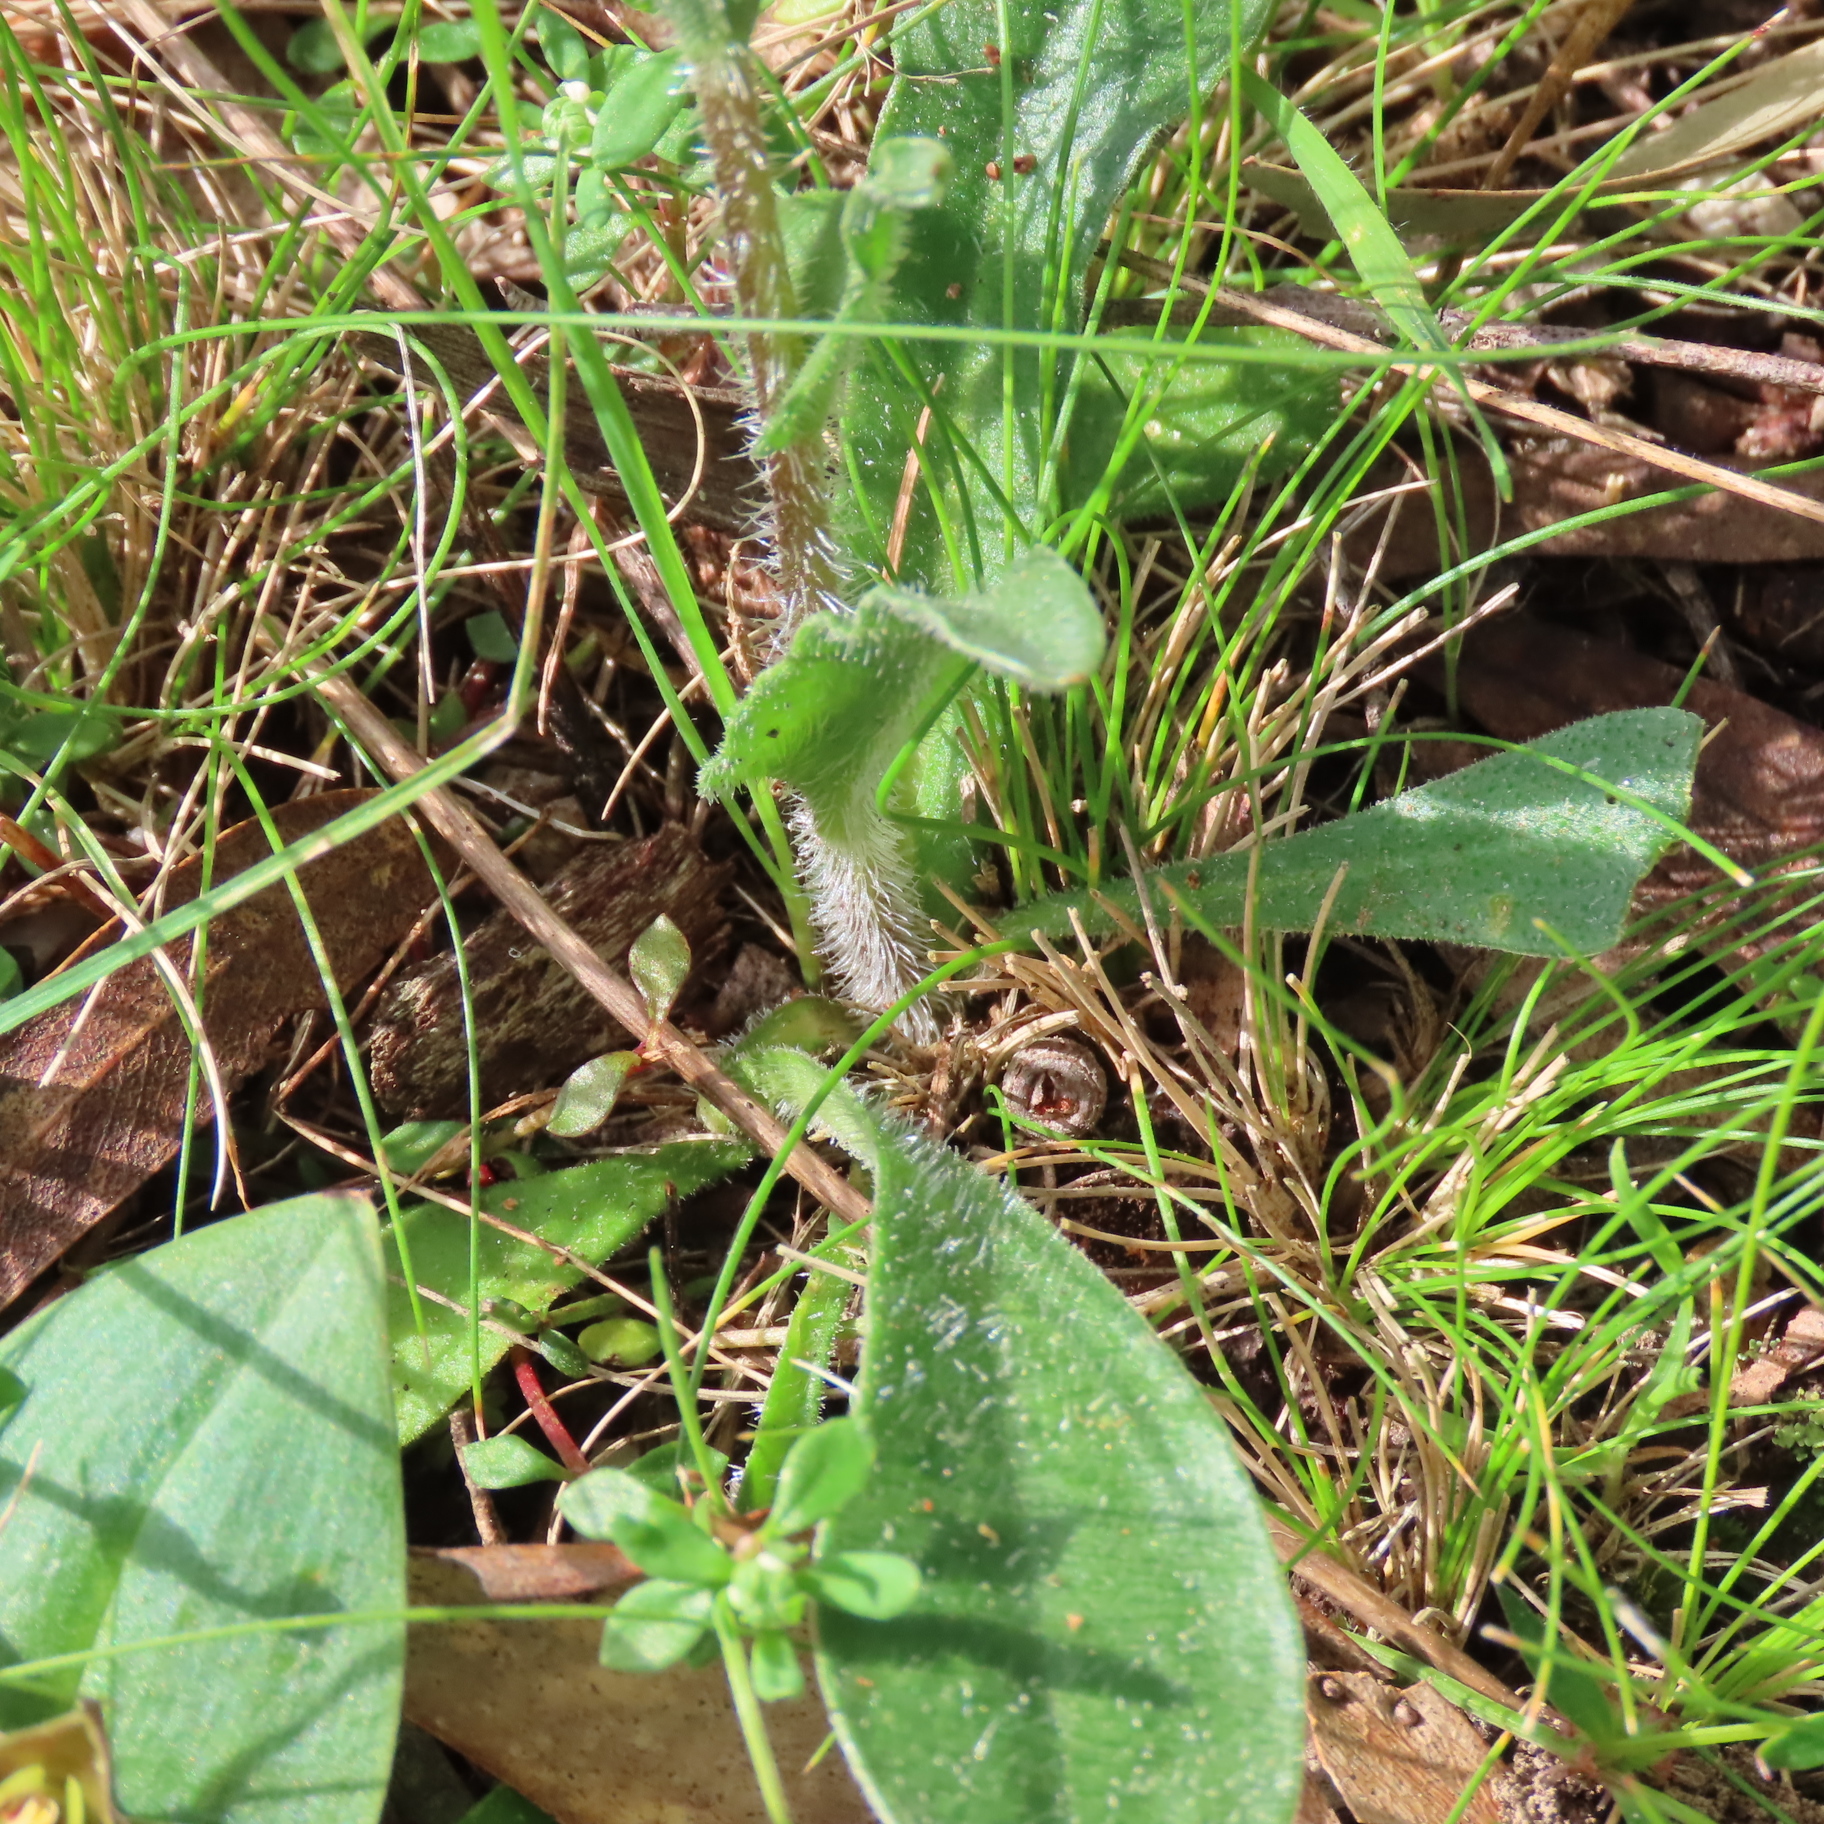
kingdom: Plantae
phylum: Tracheophyta
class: Magnoliopsida
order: Asterales
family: Asteraceae
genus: Craspedia
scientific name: Craspedia variabilis
